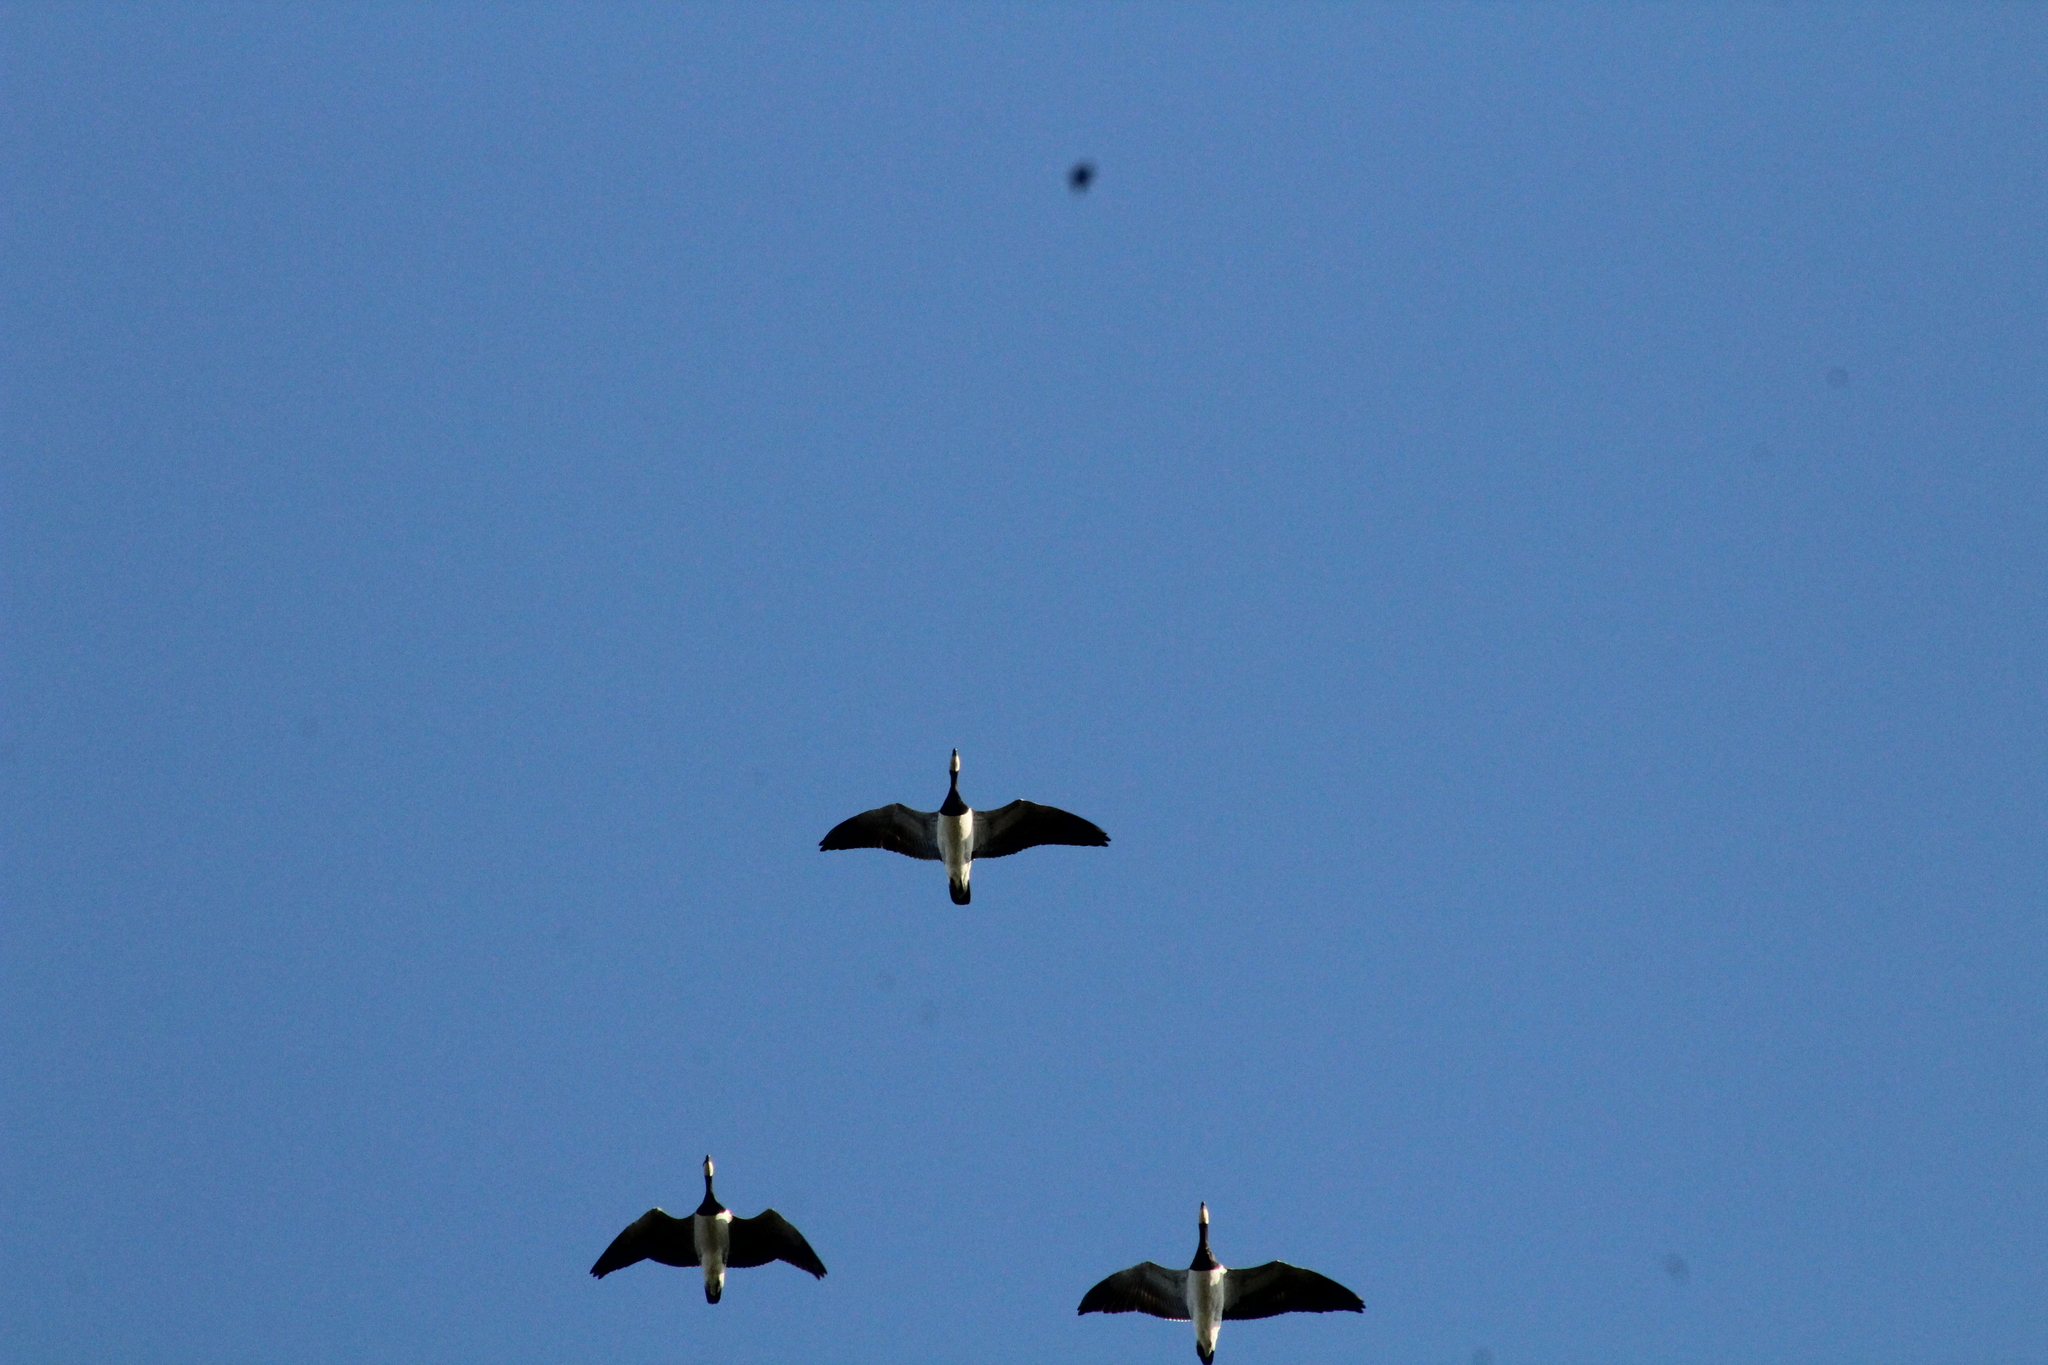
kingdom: Animalia
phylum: Chordata
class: Aves
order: Anseriformes
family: Anatidae
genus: Branta
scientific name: Branta leucopsis
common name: Barnacle goose
